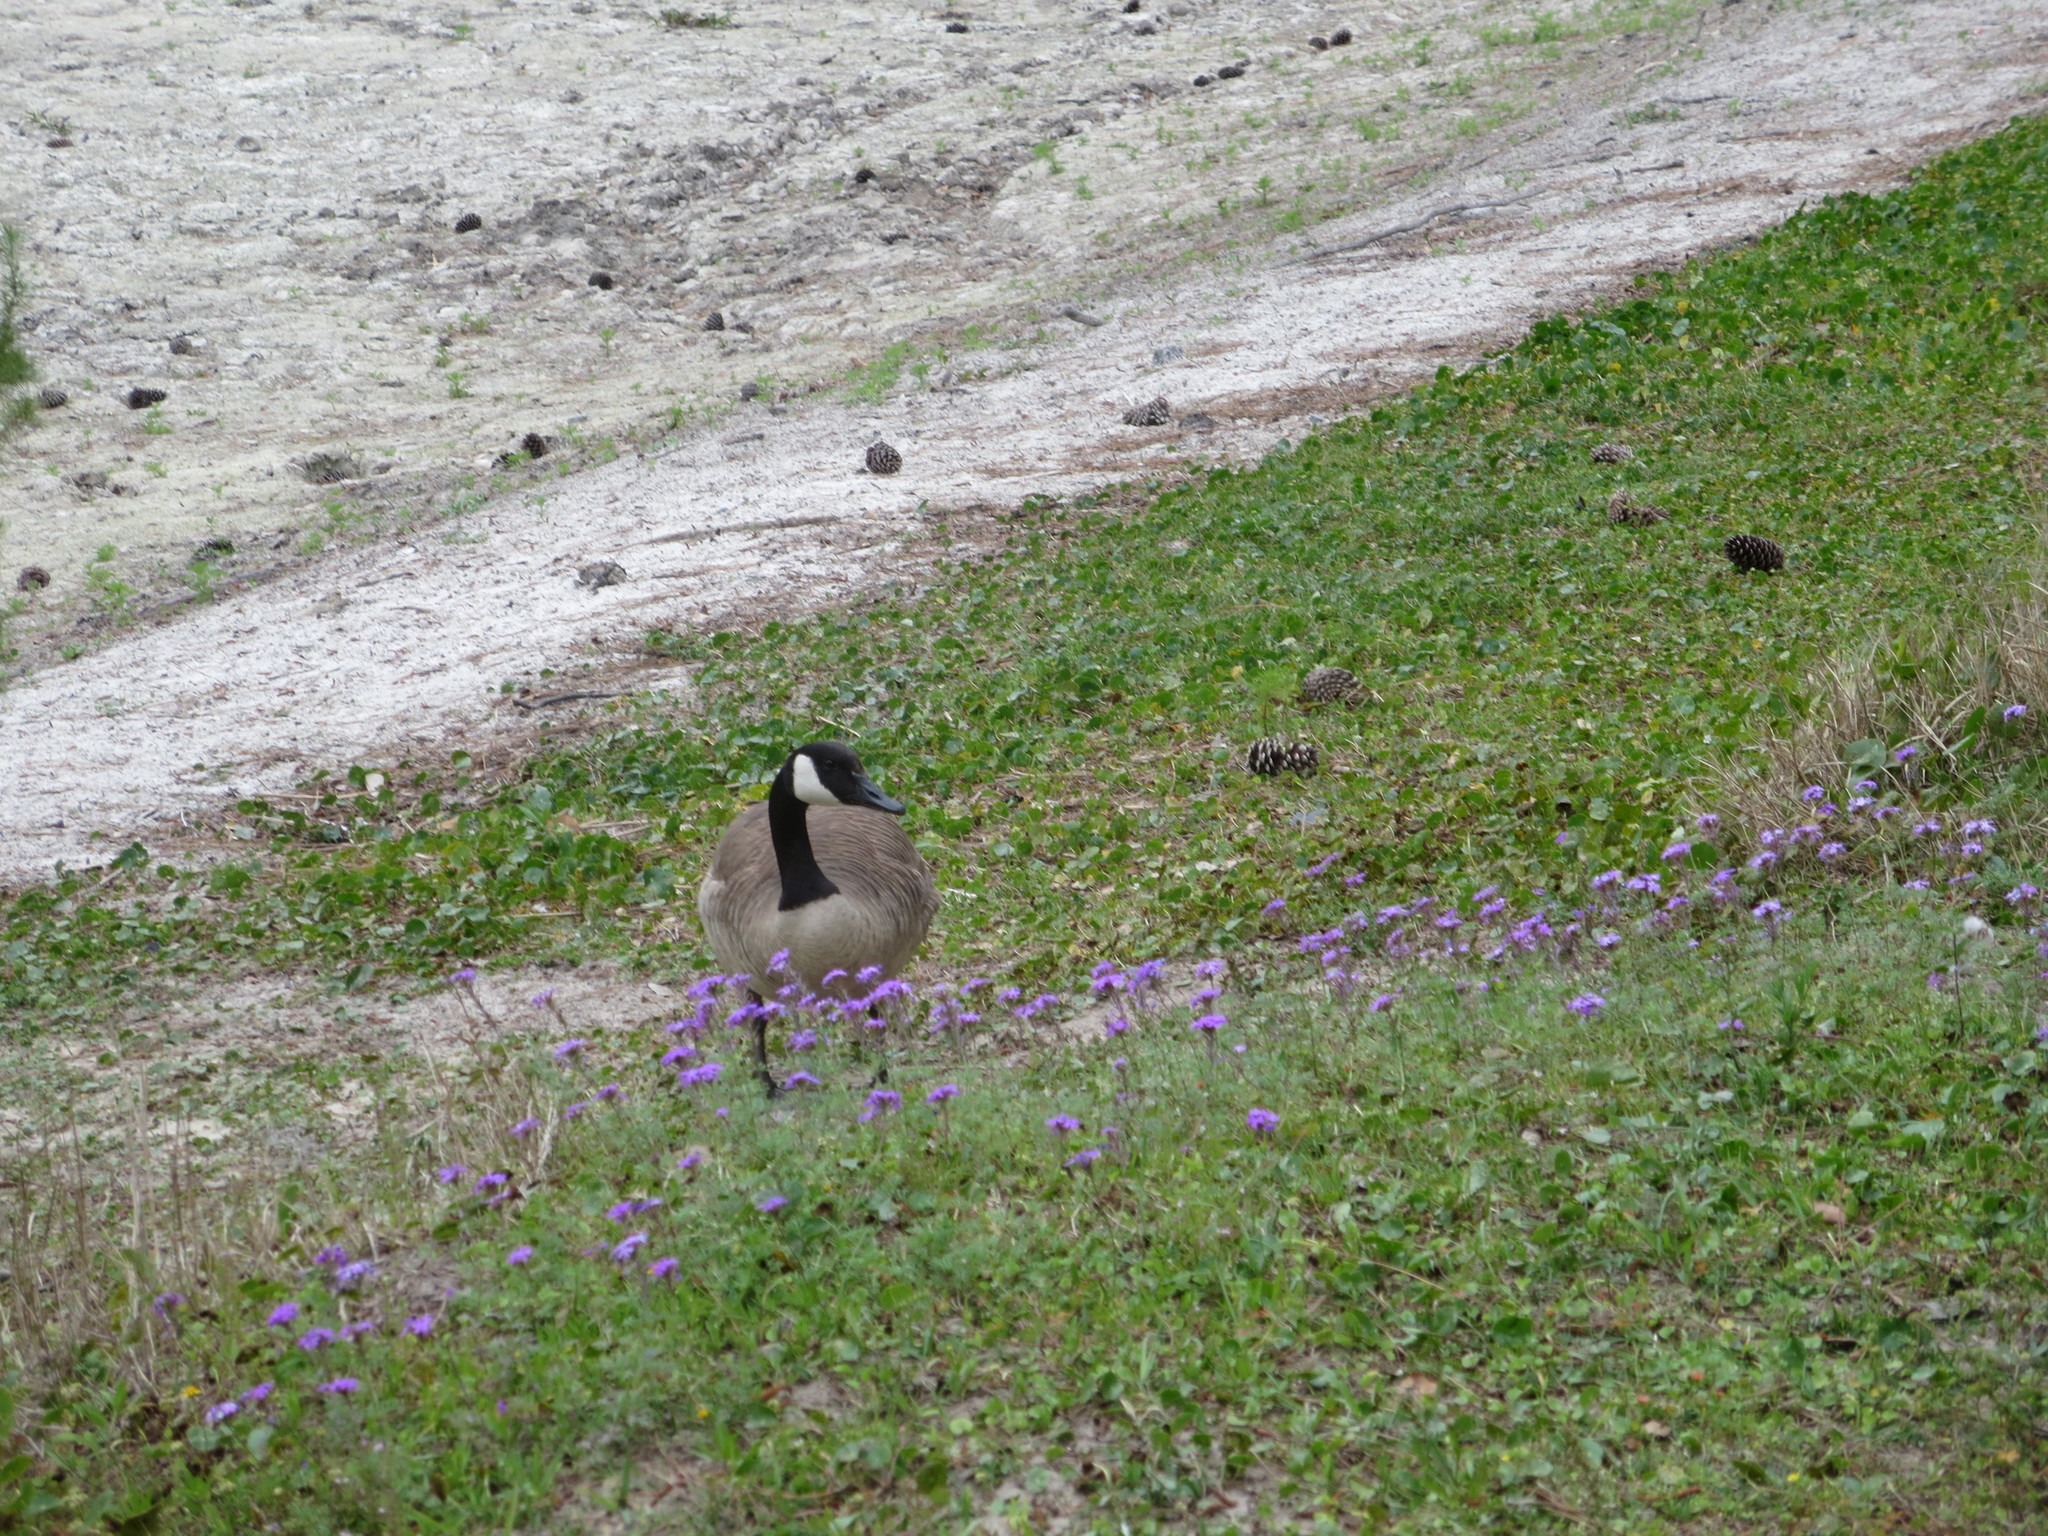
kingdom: Animalia
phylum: Chordata
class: Aves
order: Anseriformes
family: Anatidae
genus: Branta
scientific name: Branta canadensis
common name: Canada goose
